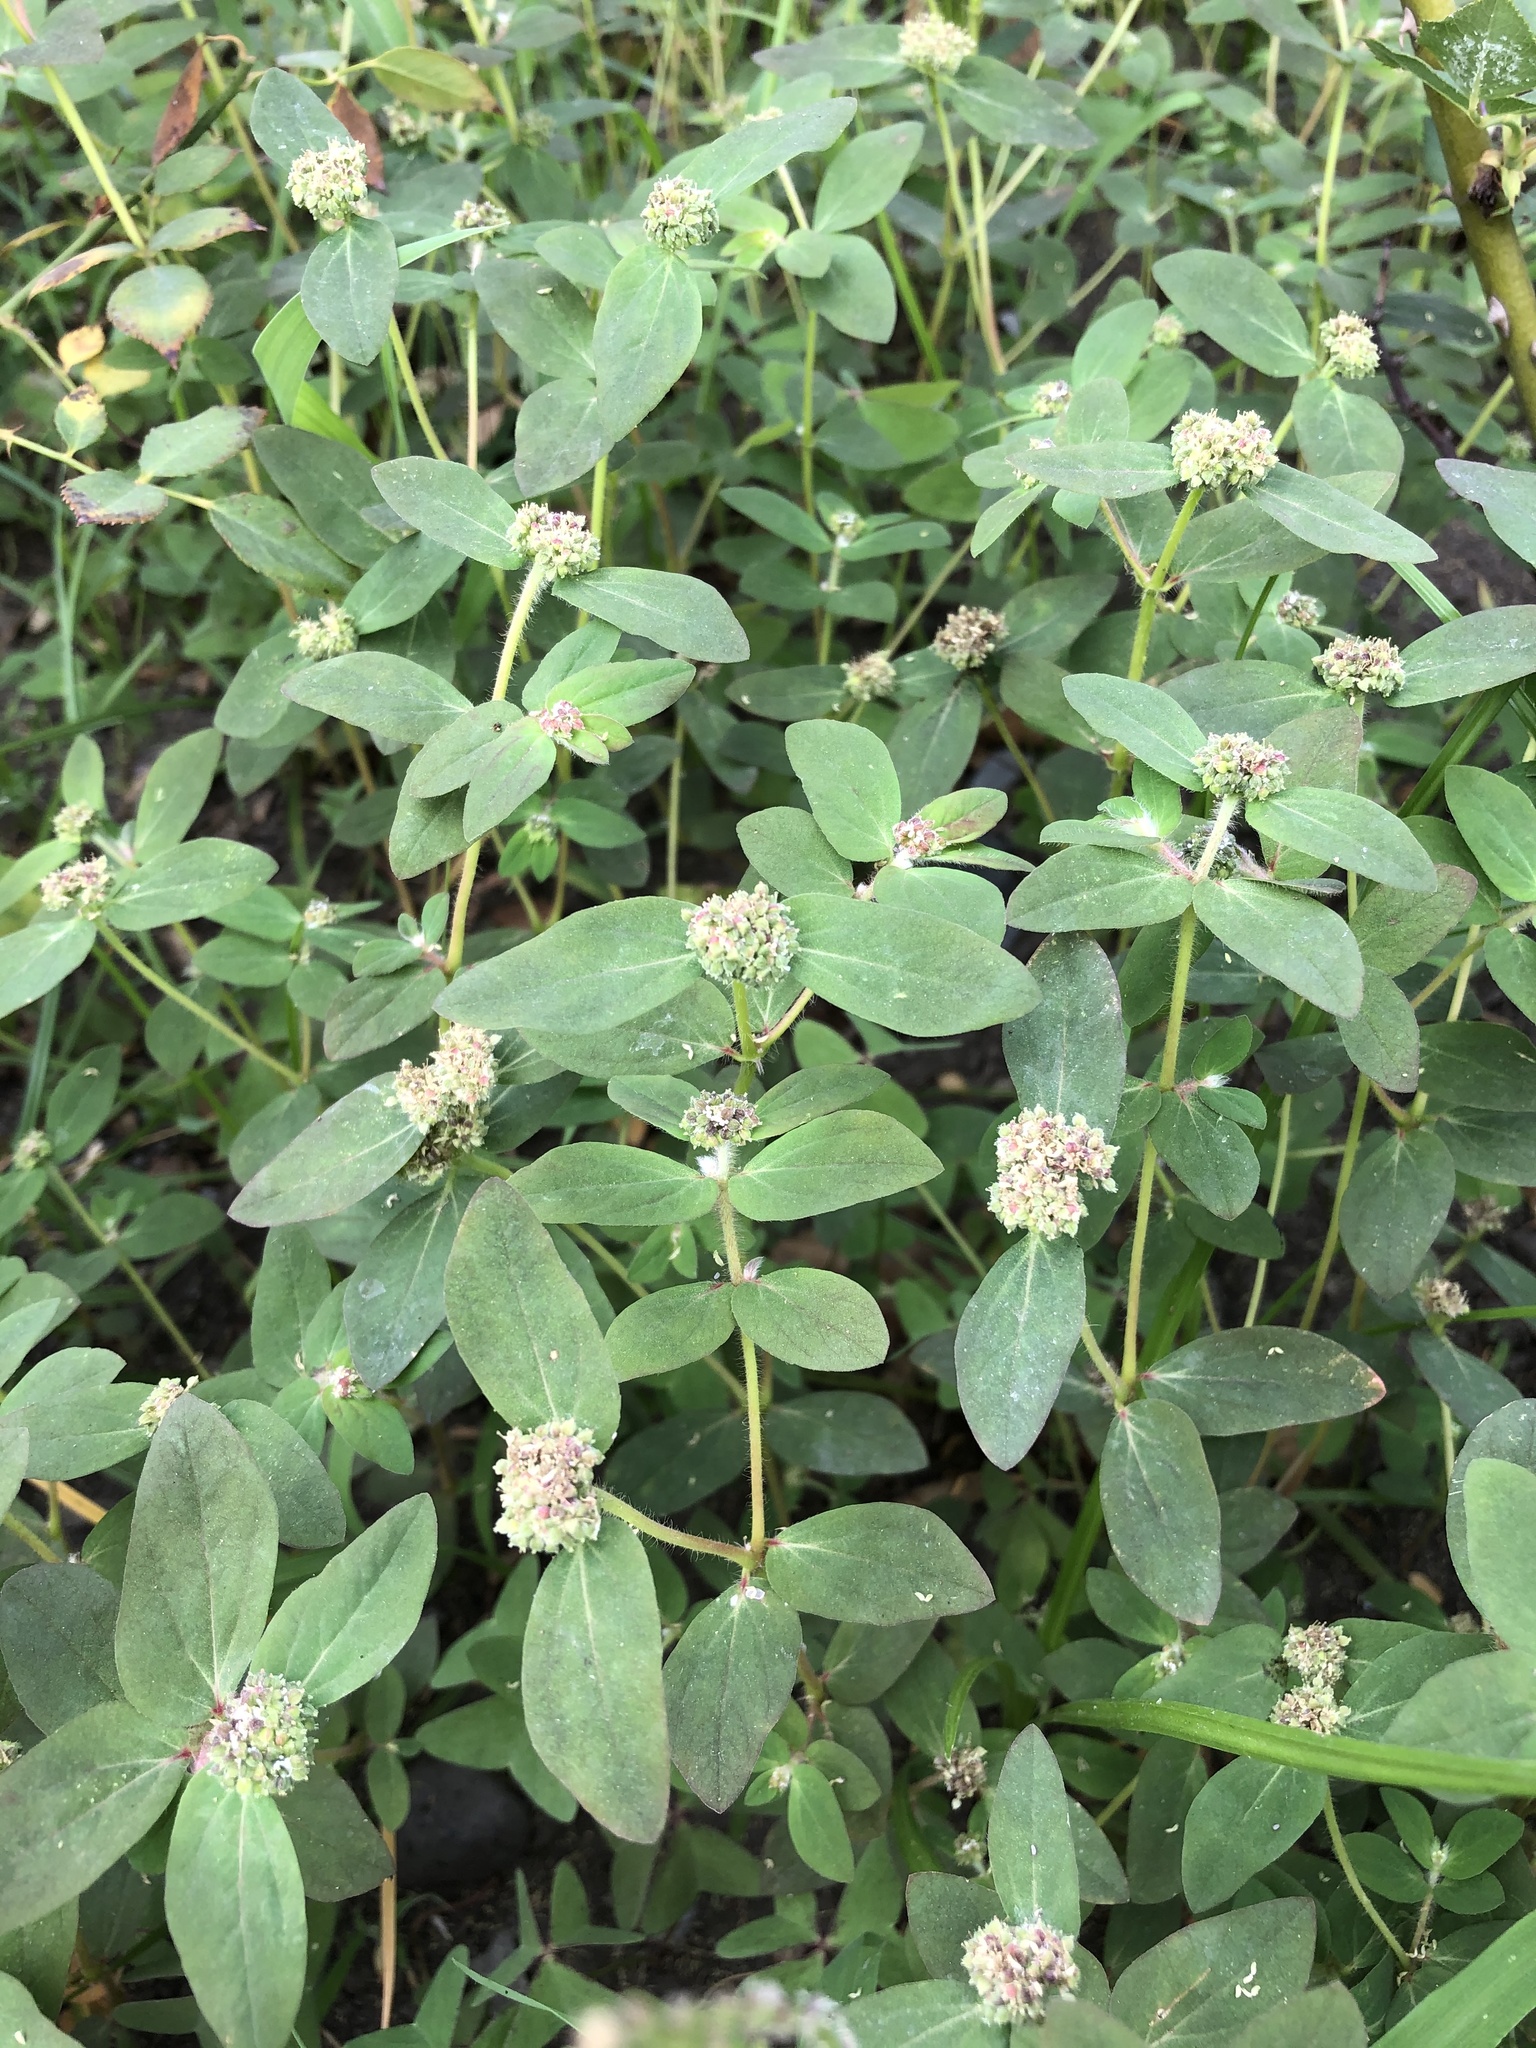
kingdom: Plantae
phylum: Tracheophyta
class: Magnoliopsida
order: Malpighiales
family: Euphorbiaceae
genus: Euphorbia
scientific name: Euphorbia ophthalmica
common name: Florida hammock sandmat
